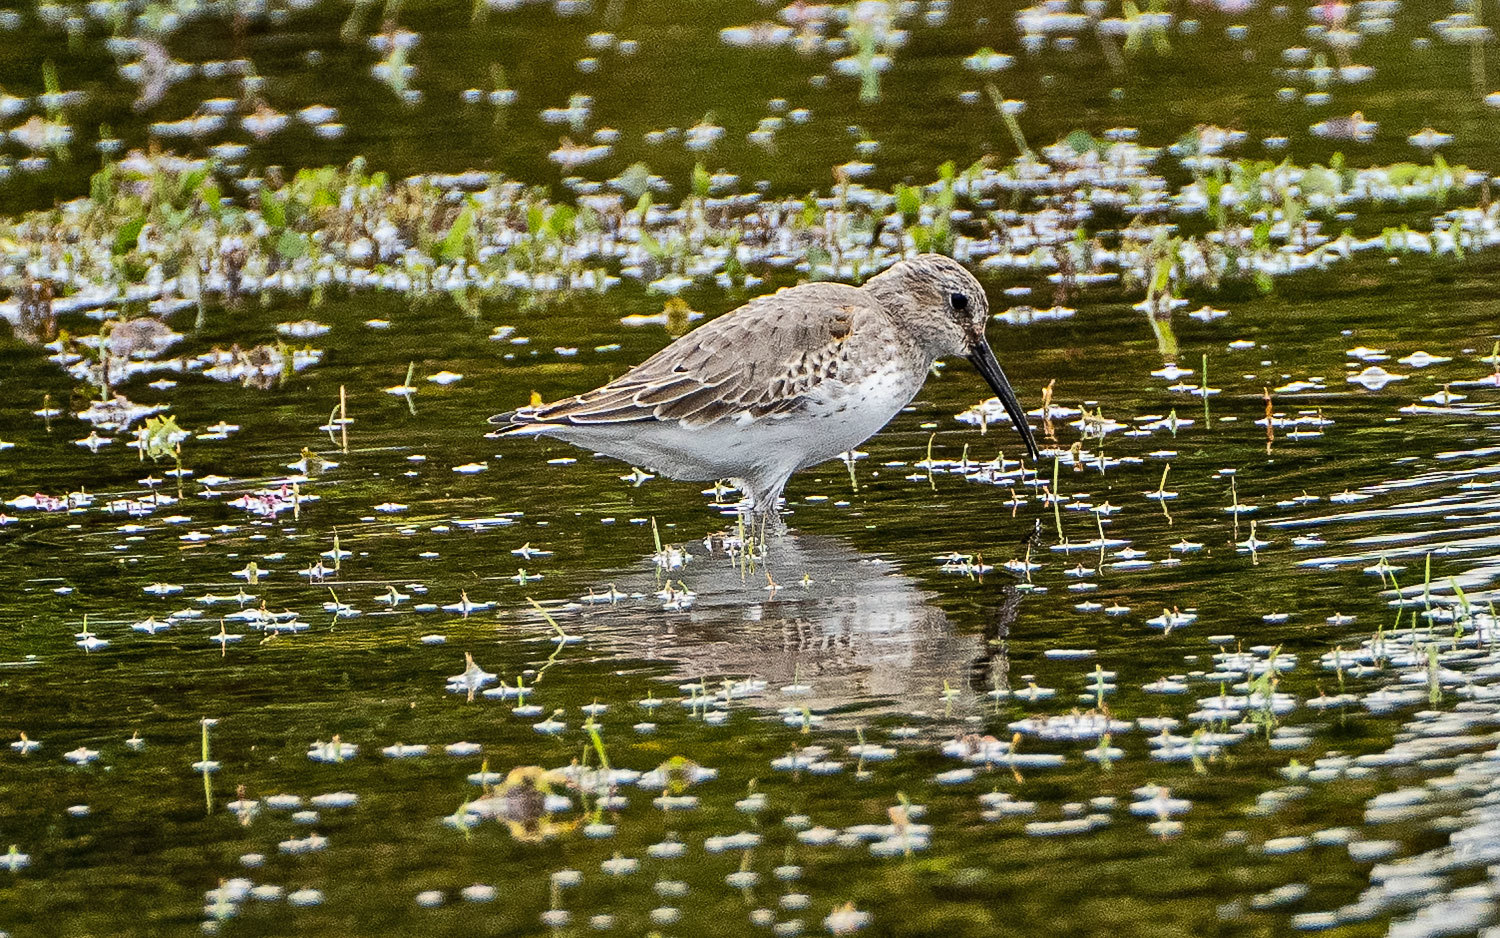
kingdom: Animalia
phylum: Chordata
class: Aves
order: Charadriiformes
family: Scolopacidae
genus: Calidris
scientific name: Calidris alpina
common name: Dunlin
